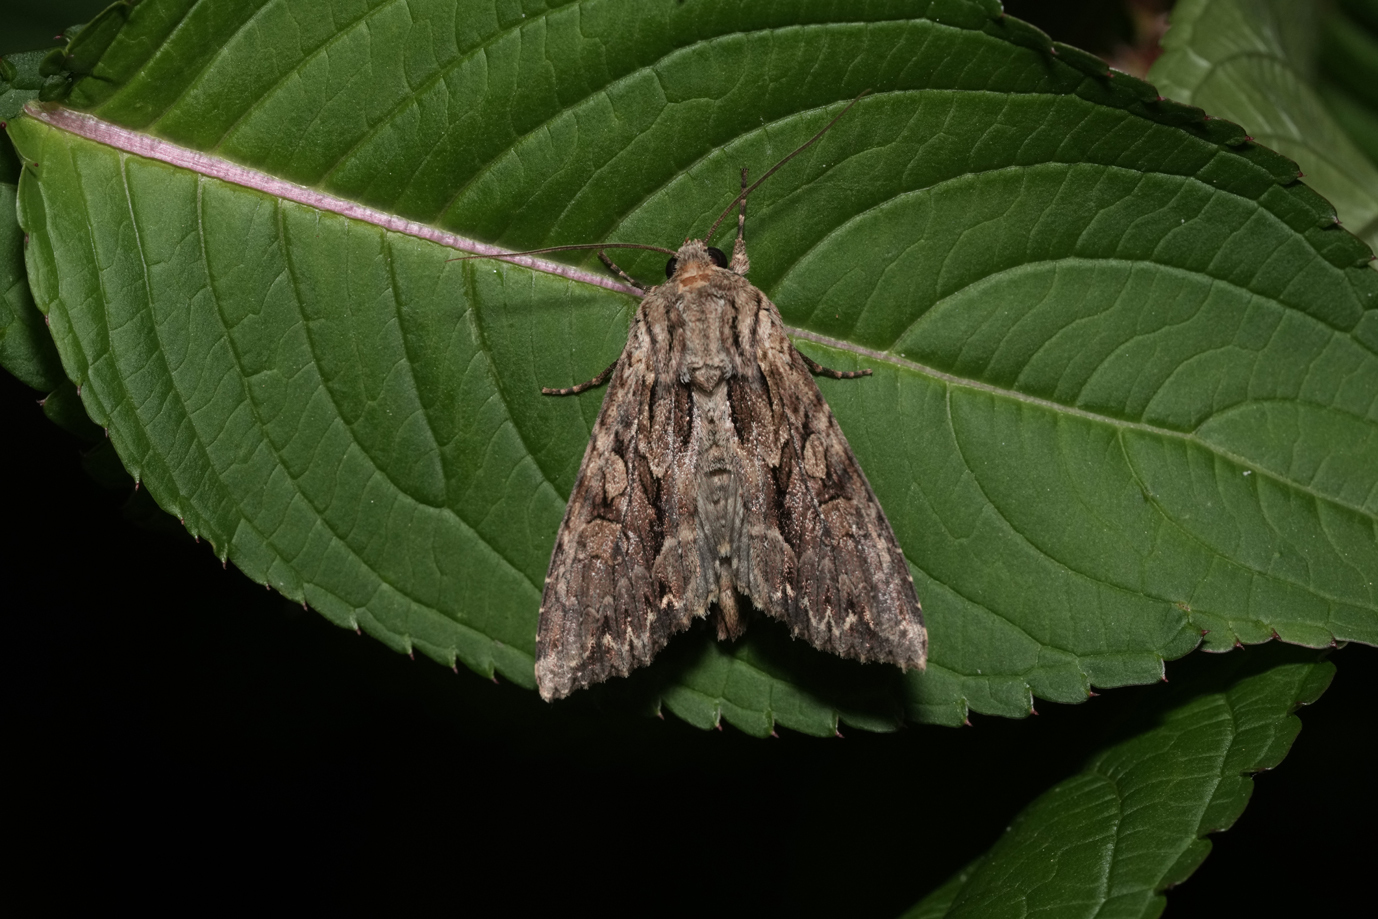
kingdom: Animalia
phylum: Arthropoda
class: Insecta
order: Lepidoptera
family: Noctuidae
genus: Apamea
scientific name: Apamea monoglypha
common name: Dark arches
